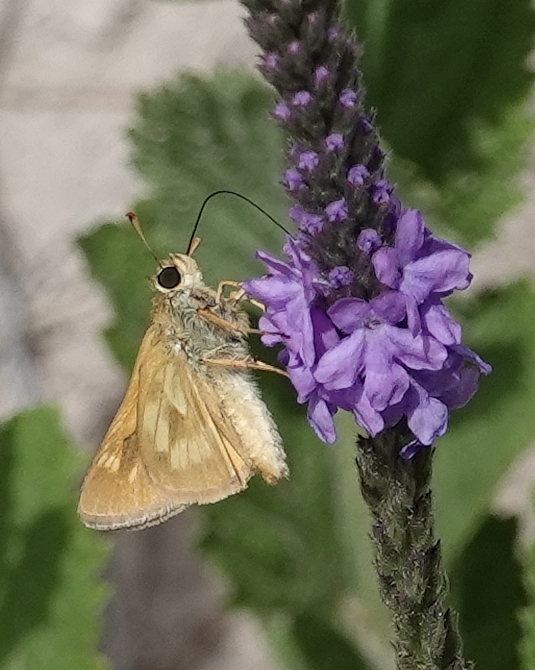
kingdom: Animalia
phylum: Arthropoda
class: Insecta
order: Lepidoptera
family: Hesperiidae
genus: Polites
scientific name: Polites mystic
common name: Long dash
